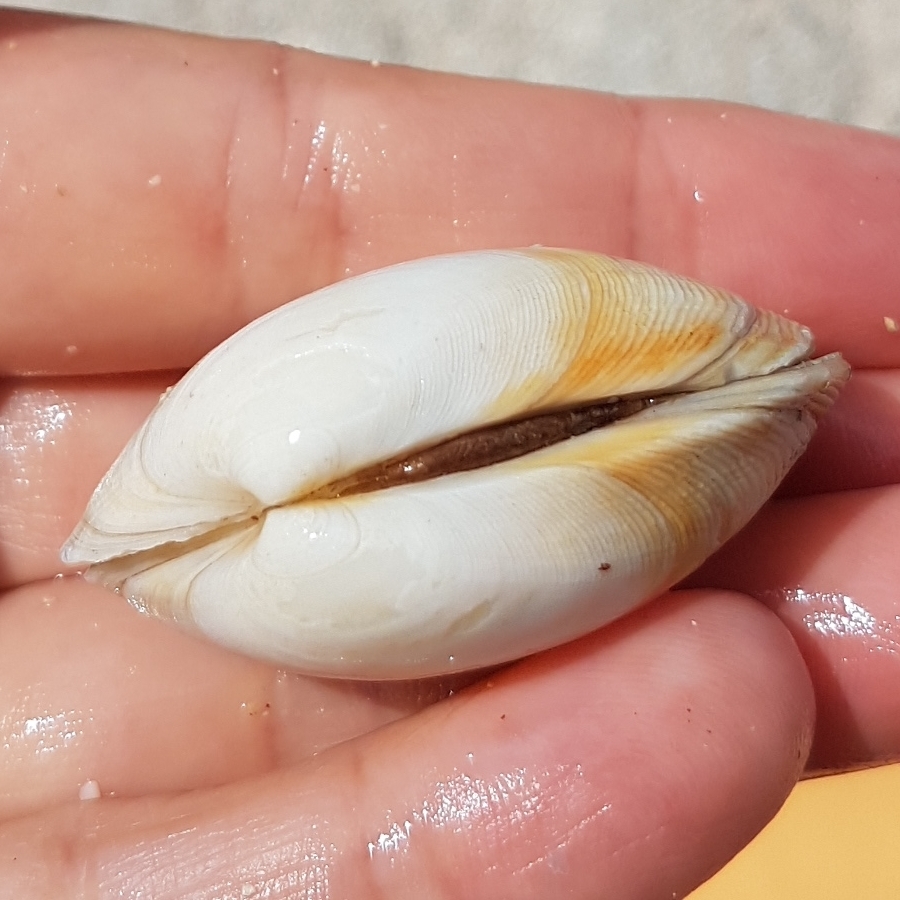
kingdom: Animalia
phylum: Mollusca
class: Bivalvia
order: Venerida
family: Veneridae
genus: Venerupis
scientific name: Venerupis corrugata
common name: Pullet carpet shell
